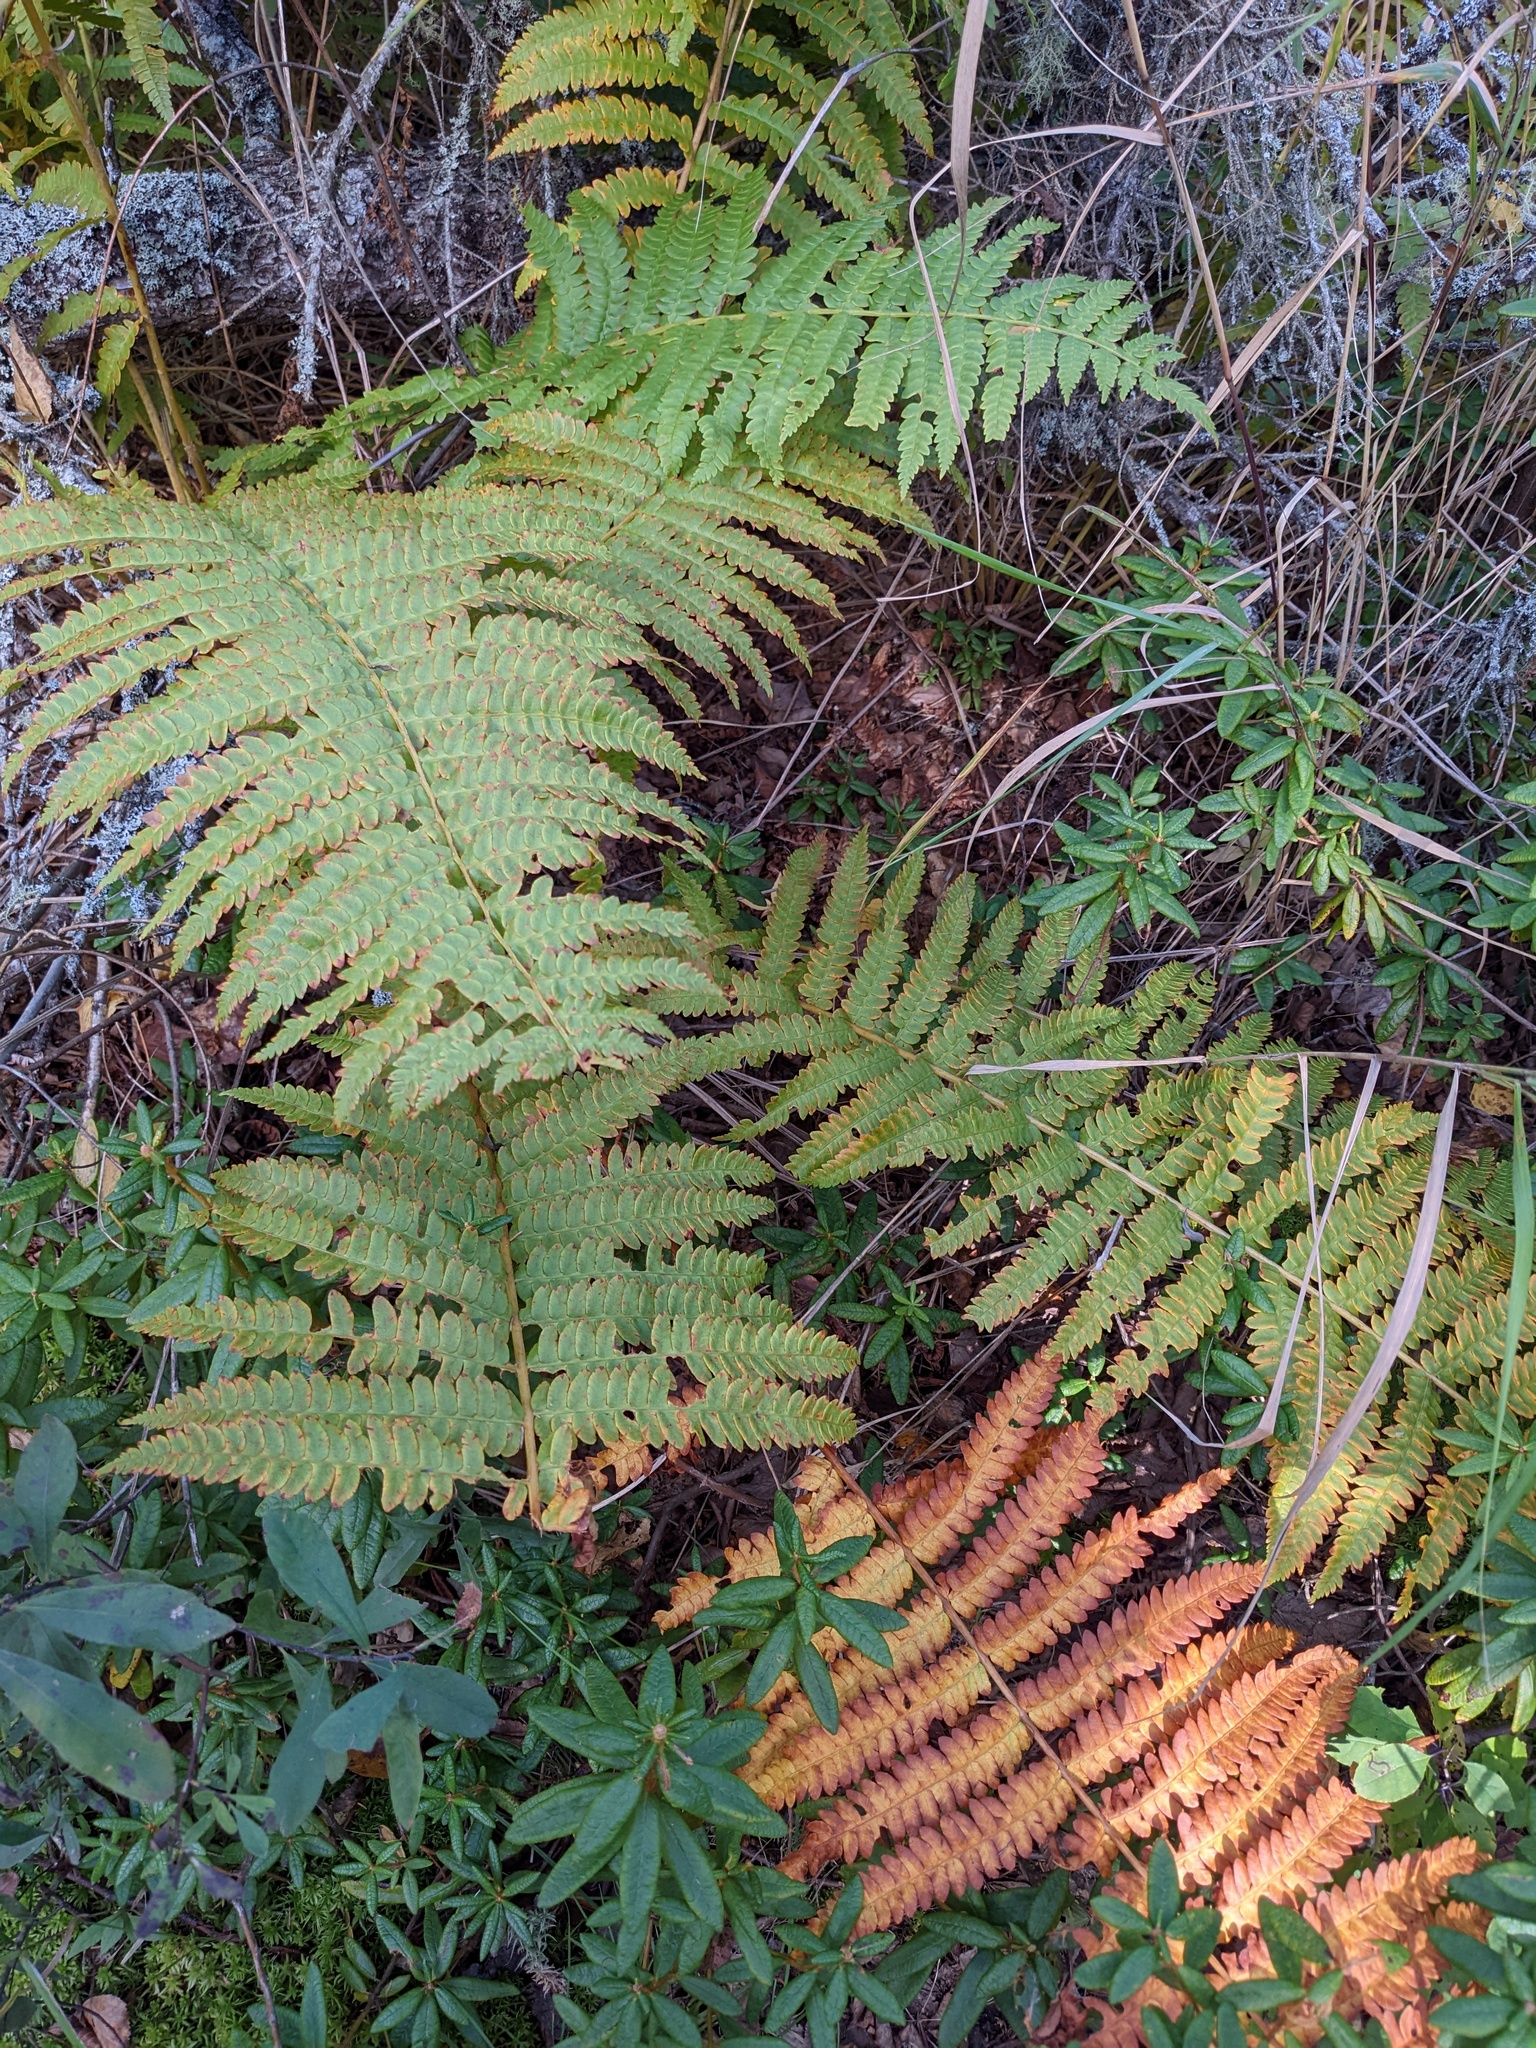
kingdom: Plantae
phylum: Tracheophyta
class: Polypodiopsida
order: Osmundales
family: Osmundaceae
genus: Osmundastrum
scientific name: Osmundastrum cinnamomeum
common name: Cinnamon fern
